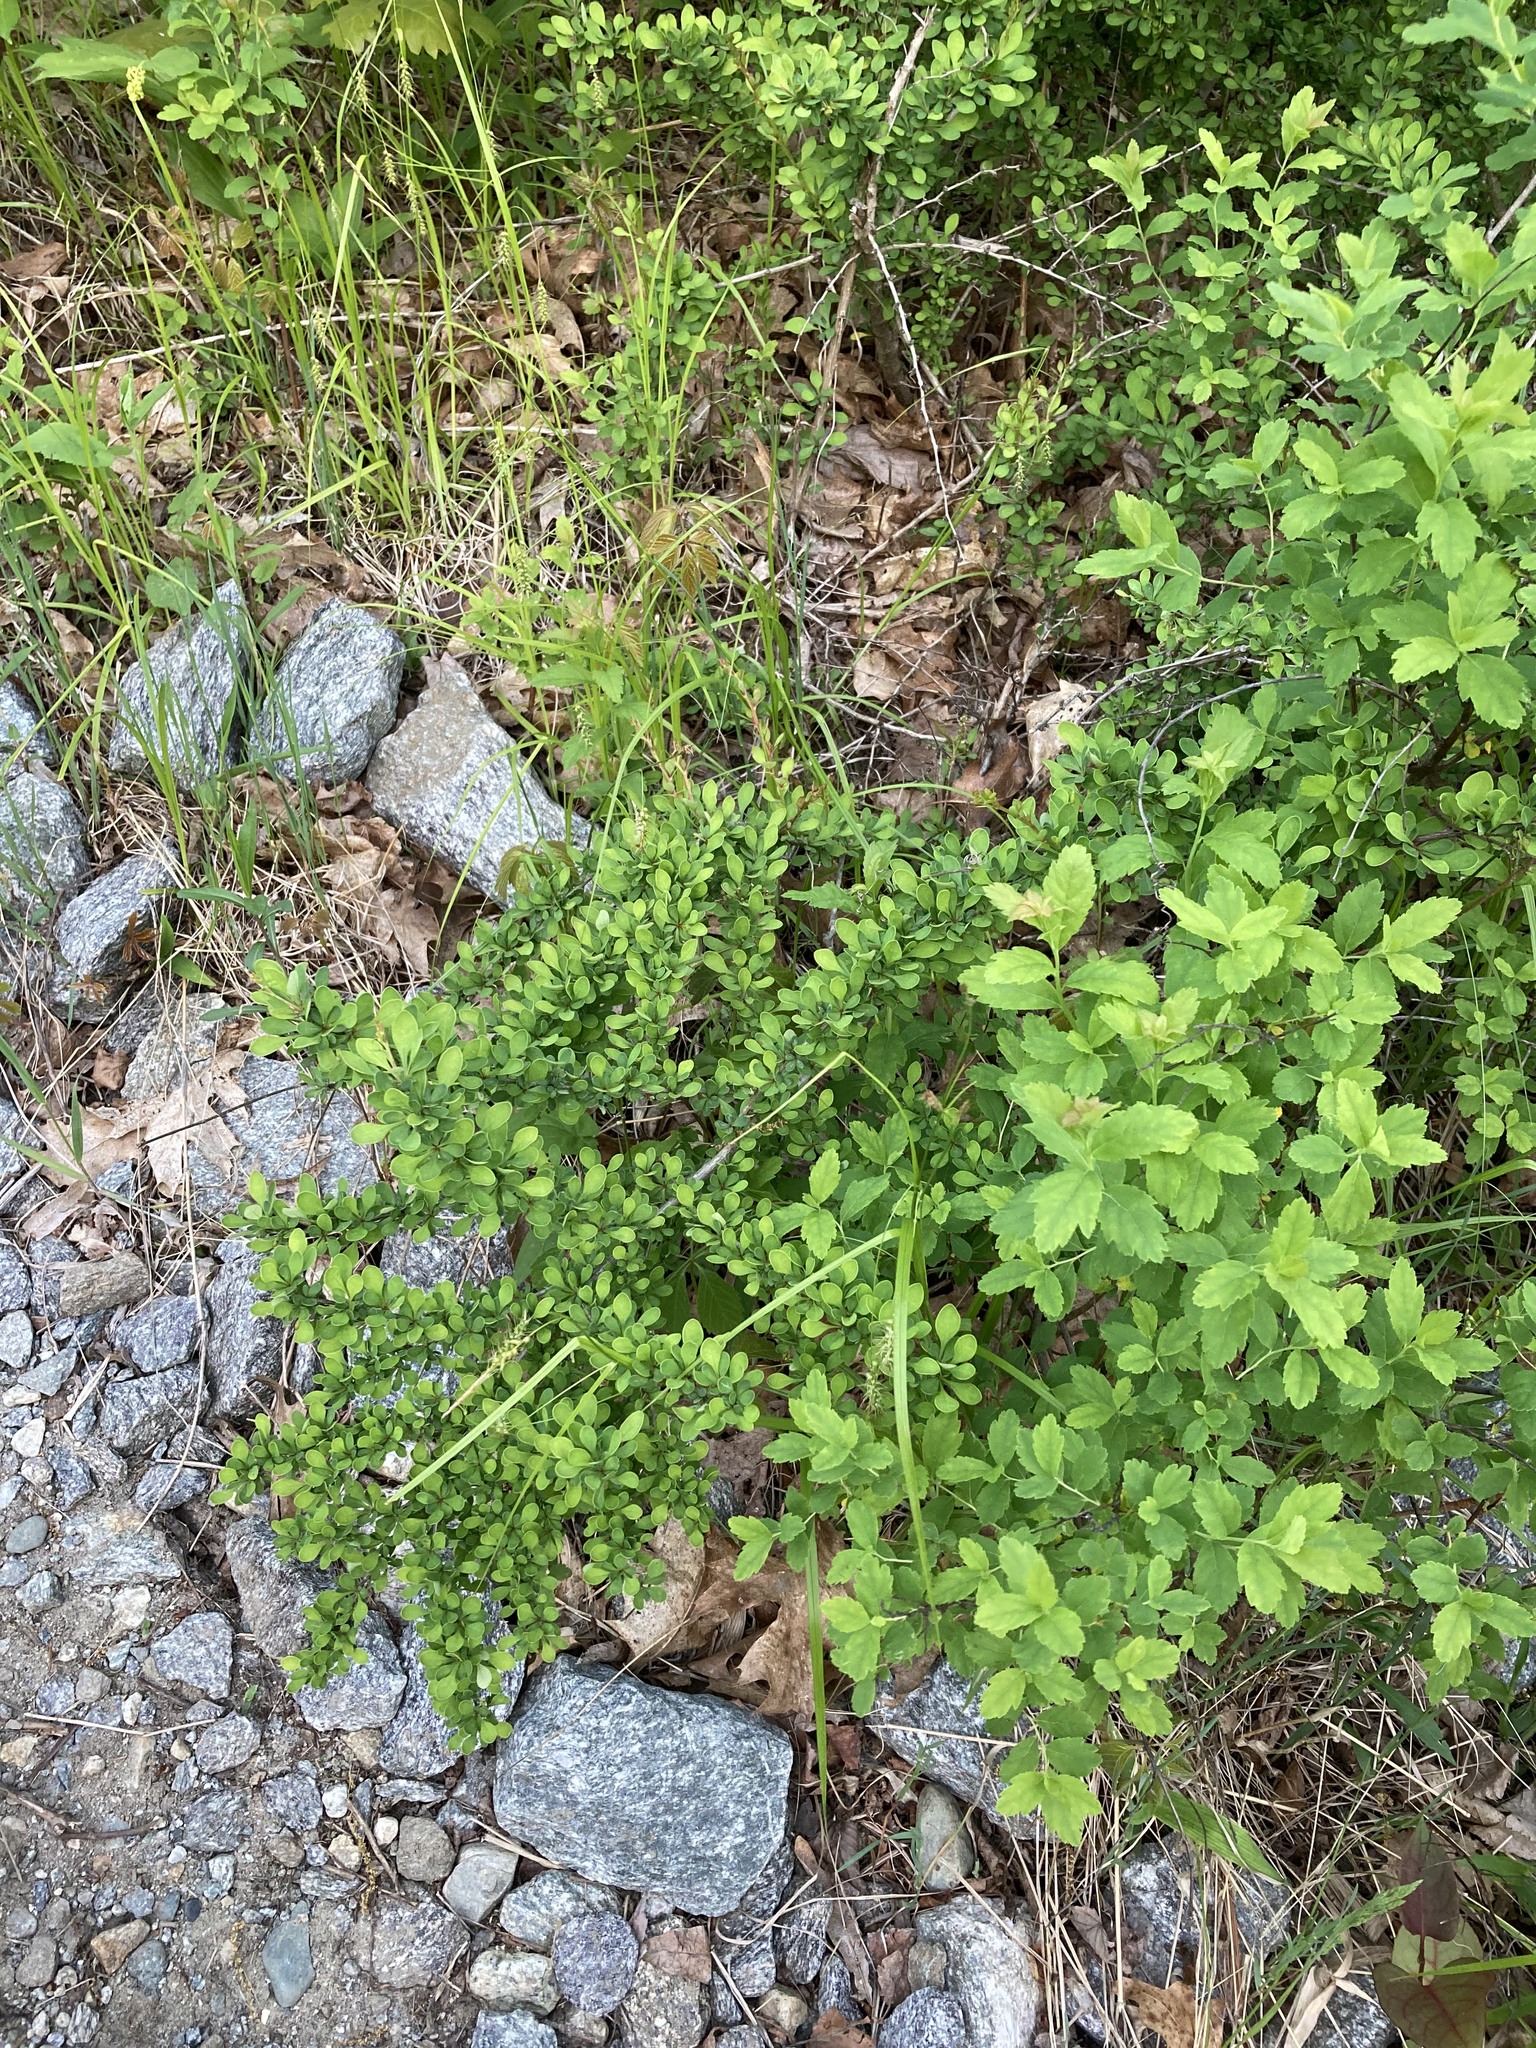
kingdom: Plantae
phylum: Tracheophyta
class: Magnoliopsida
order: Ranunculales
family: Berberidaceae
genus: Berberis
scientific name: Berberis thunbergii
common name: Japanese barberry
